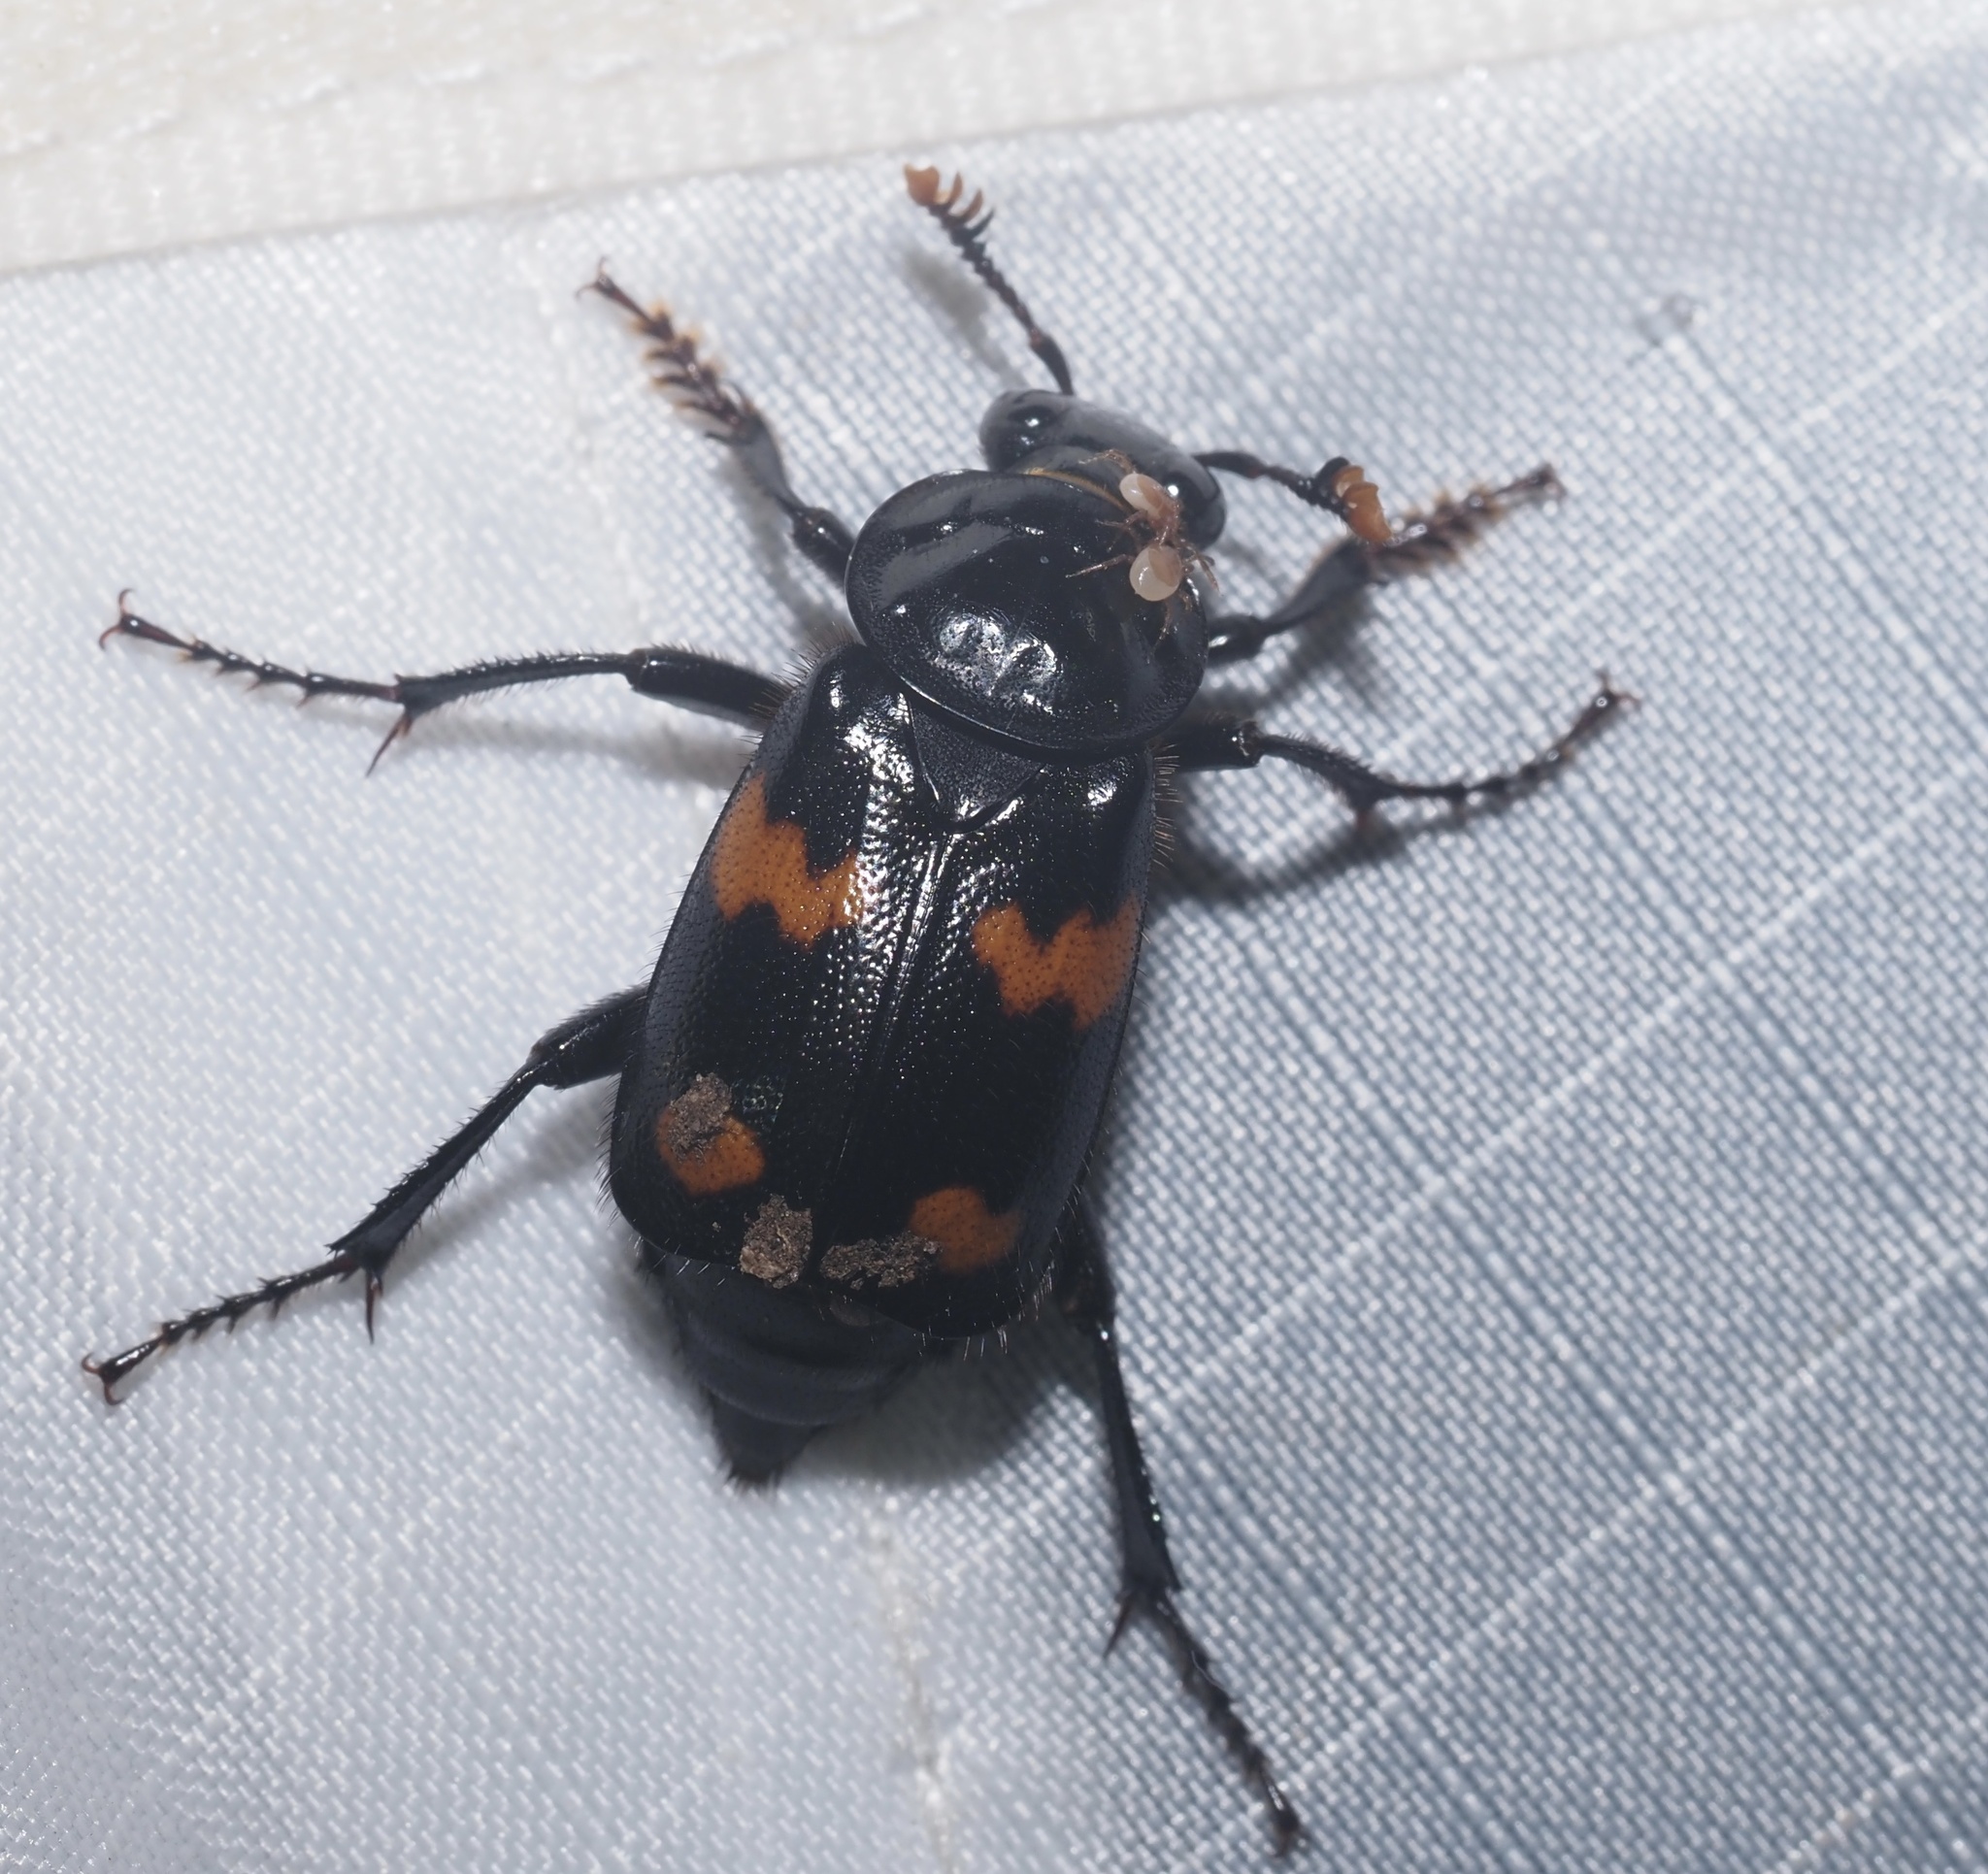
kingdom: Animalia
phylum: Arthropoda
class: Insecta
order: Coleoptera
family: Staphylinidae
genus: Nicrophorus
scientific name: Nicrophorus orbicollis
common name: Roundneck sexton beetle
